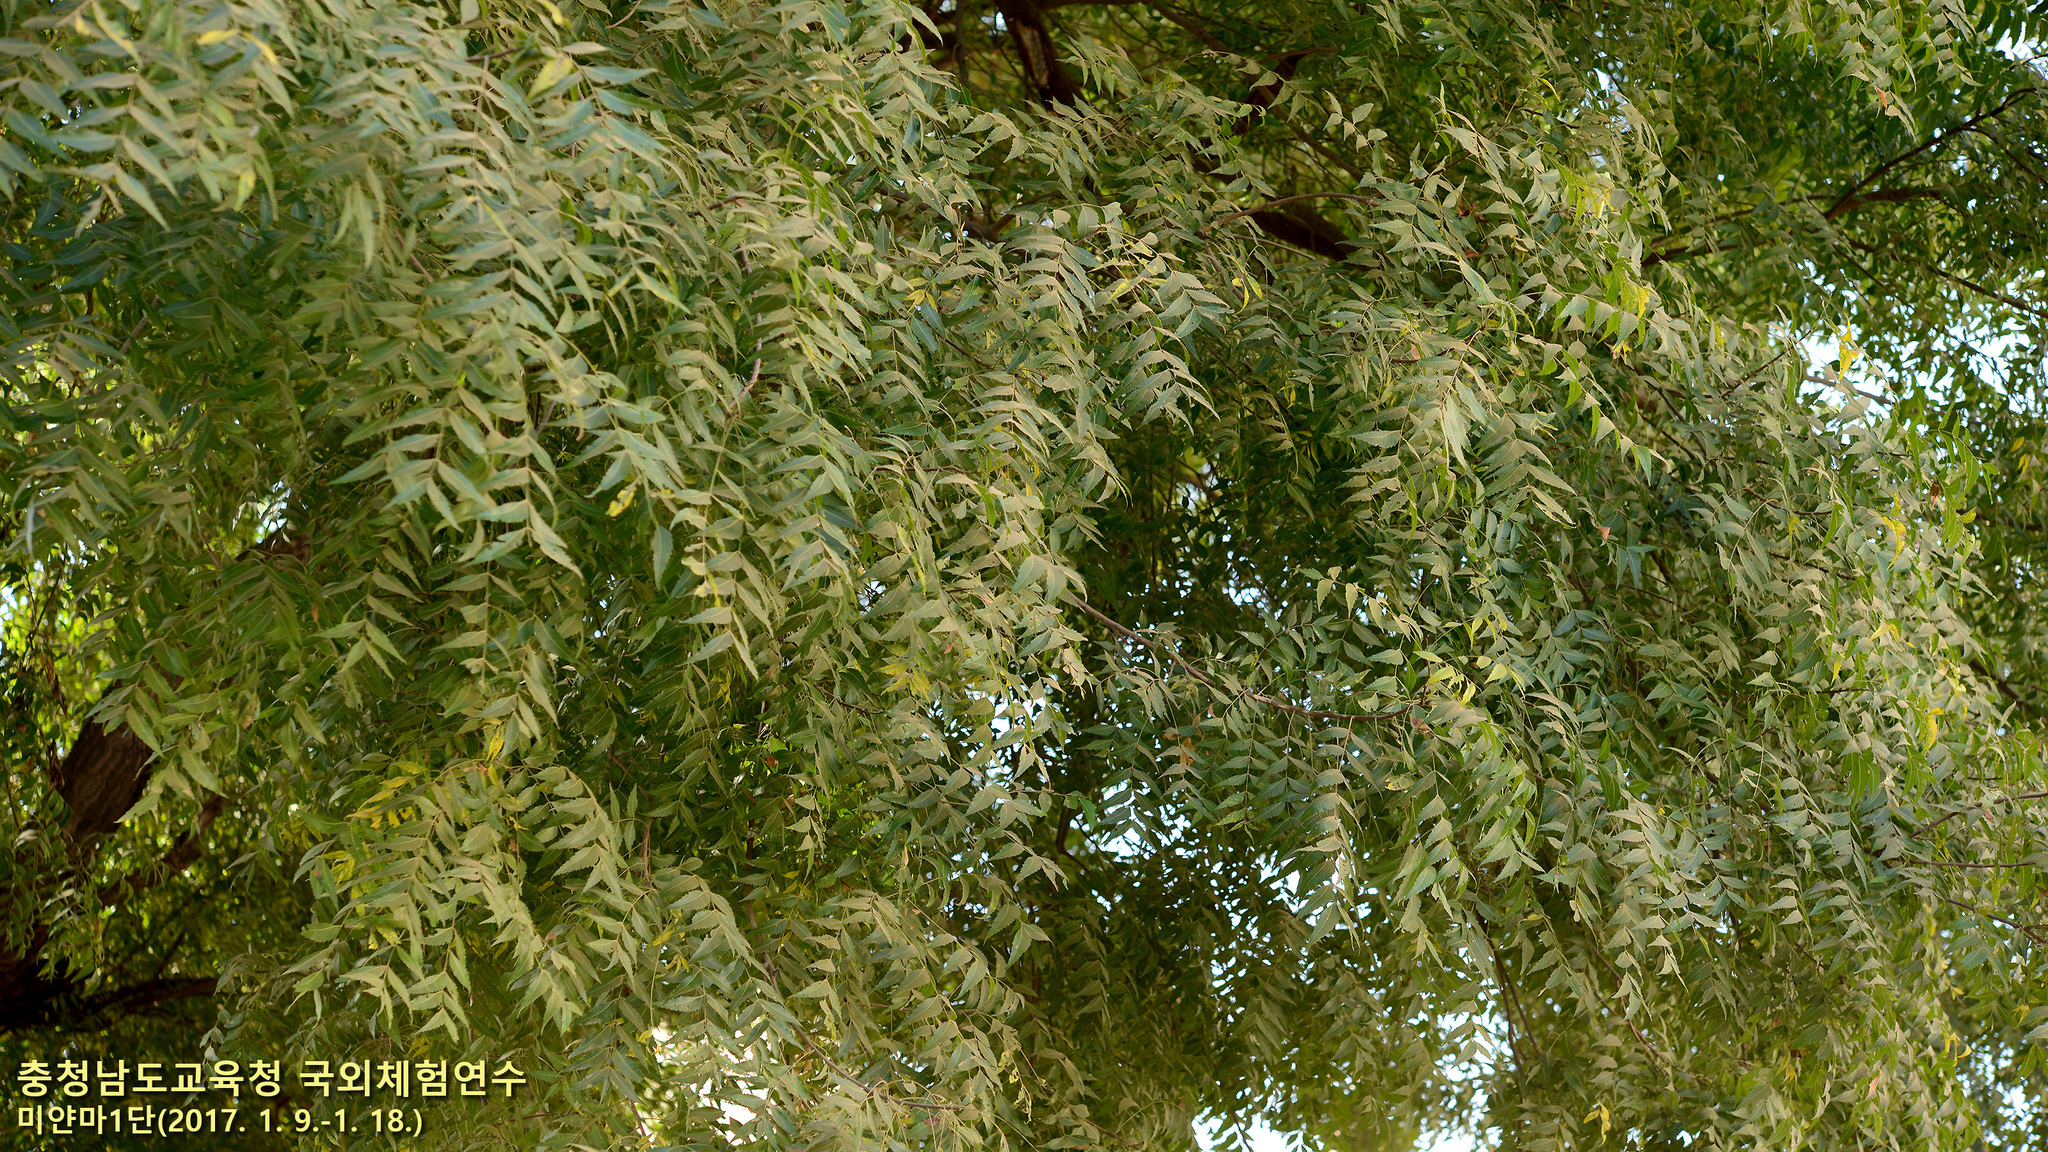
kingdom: Plantae
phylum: Tracheophyta
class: Magnoliopsida
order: Sapindales
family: Meliaceae
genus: Azadirachta
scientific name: Azadirachta indica
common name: Neem
